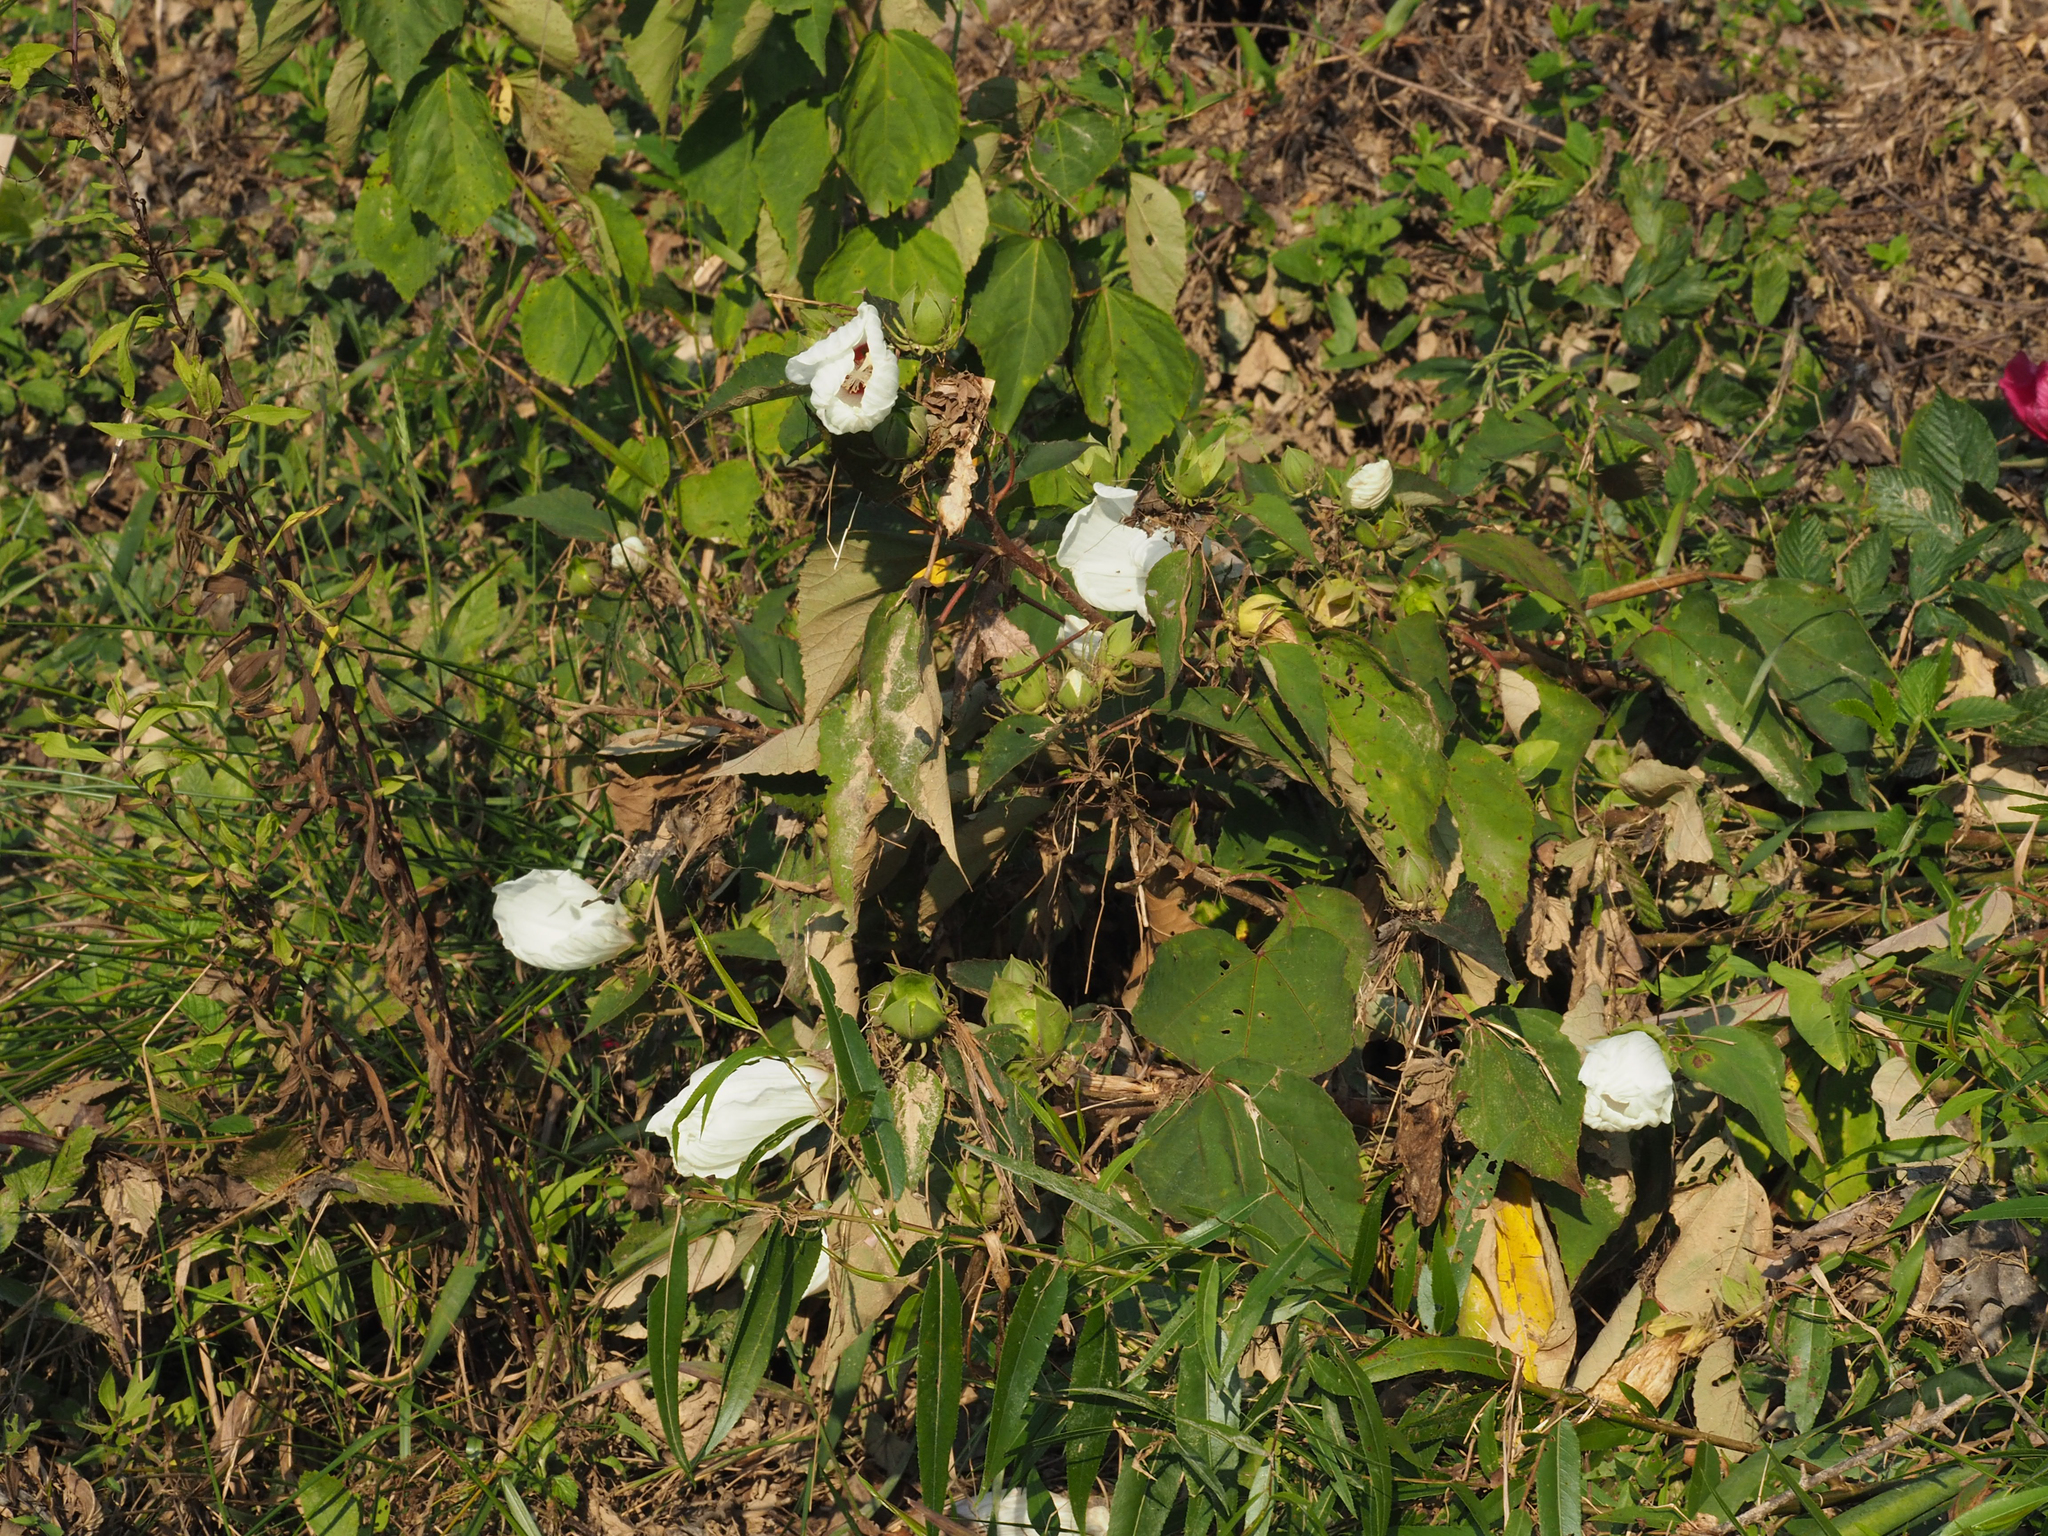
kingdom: Plantae
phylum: Tracheophyta
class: Magnoliopsida
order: Malvales
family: Malvaceae
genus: Hibiscus
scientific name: Hibiscus moscheutos
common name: Common rose-mallow
